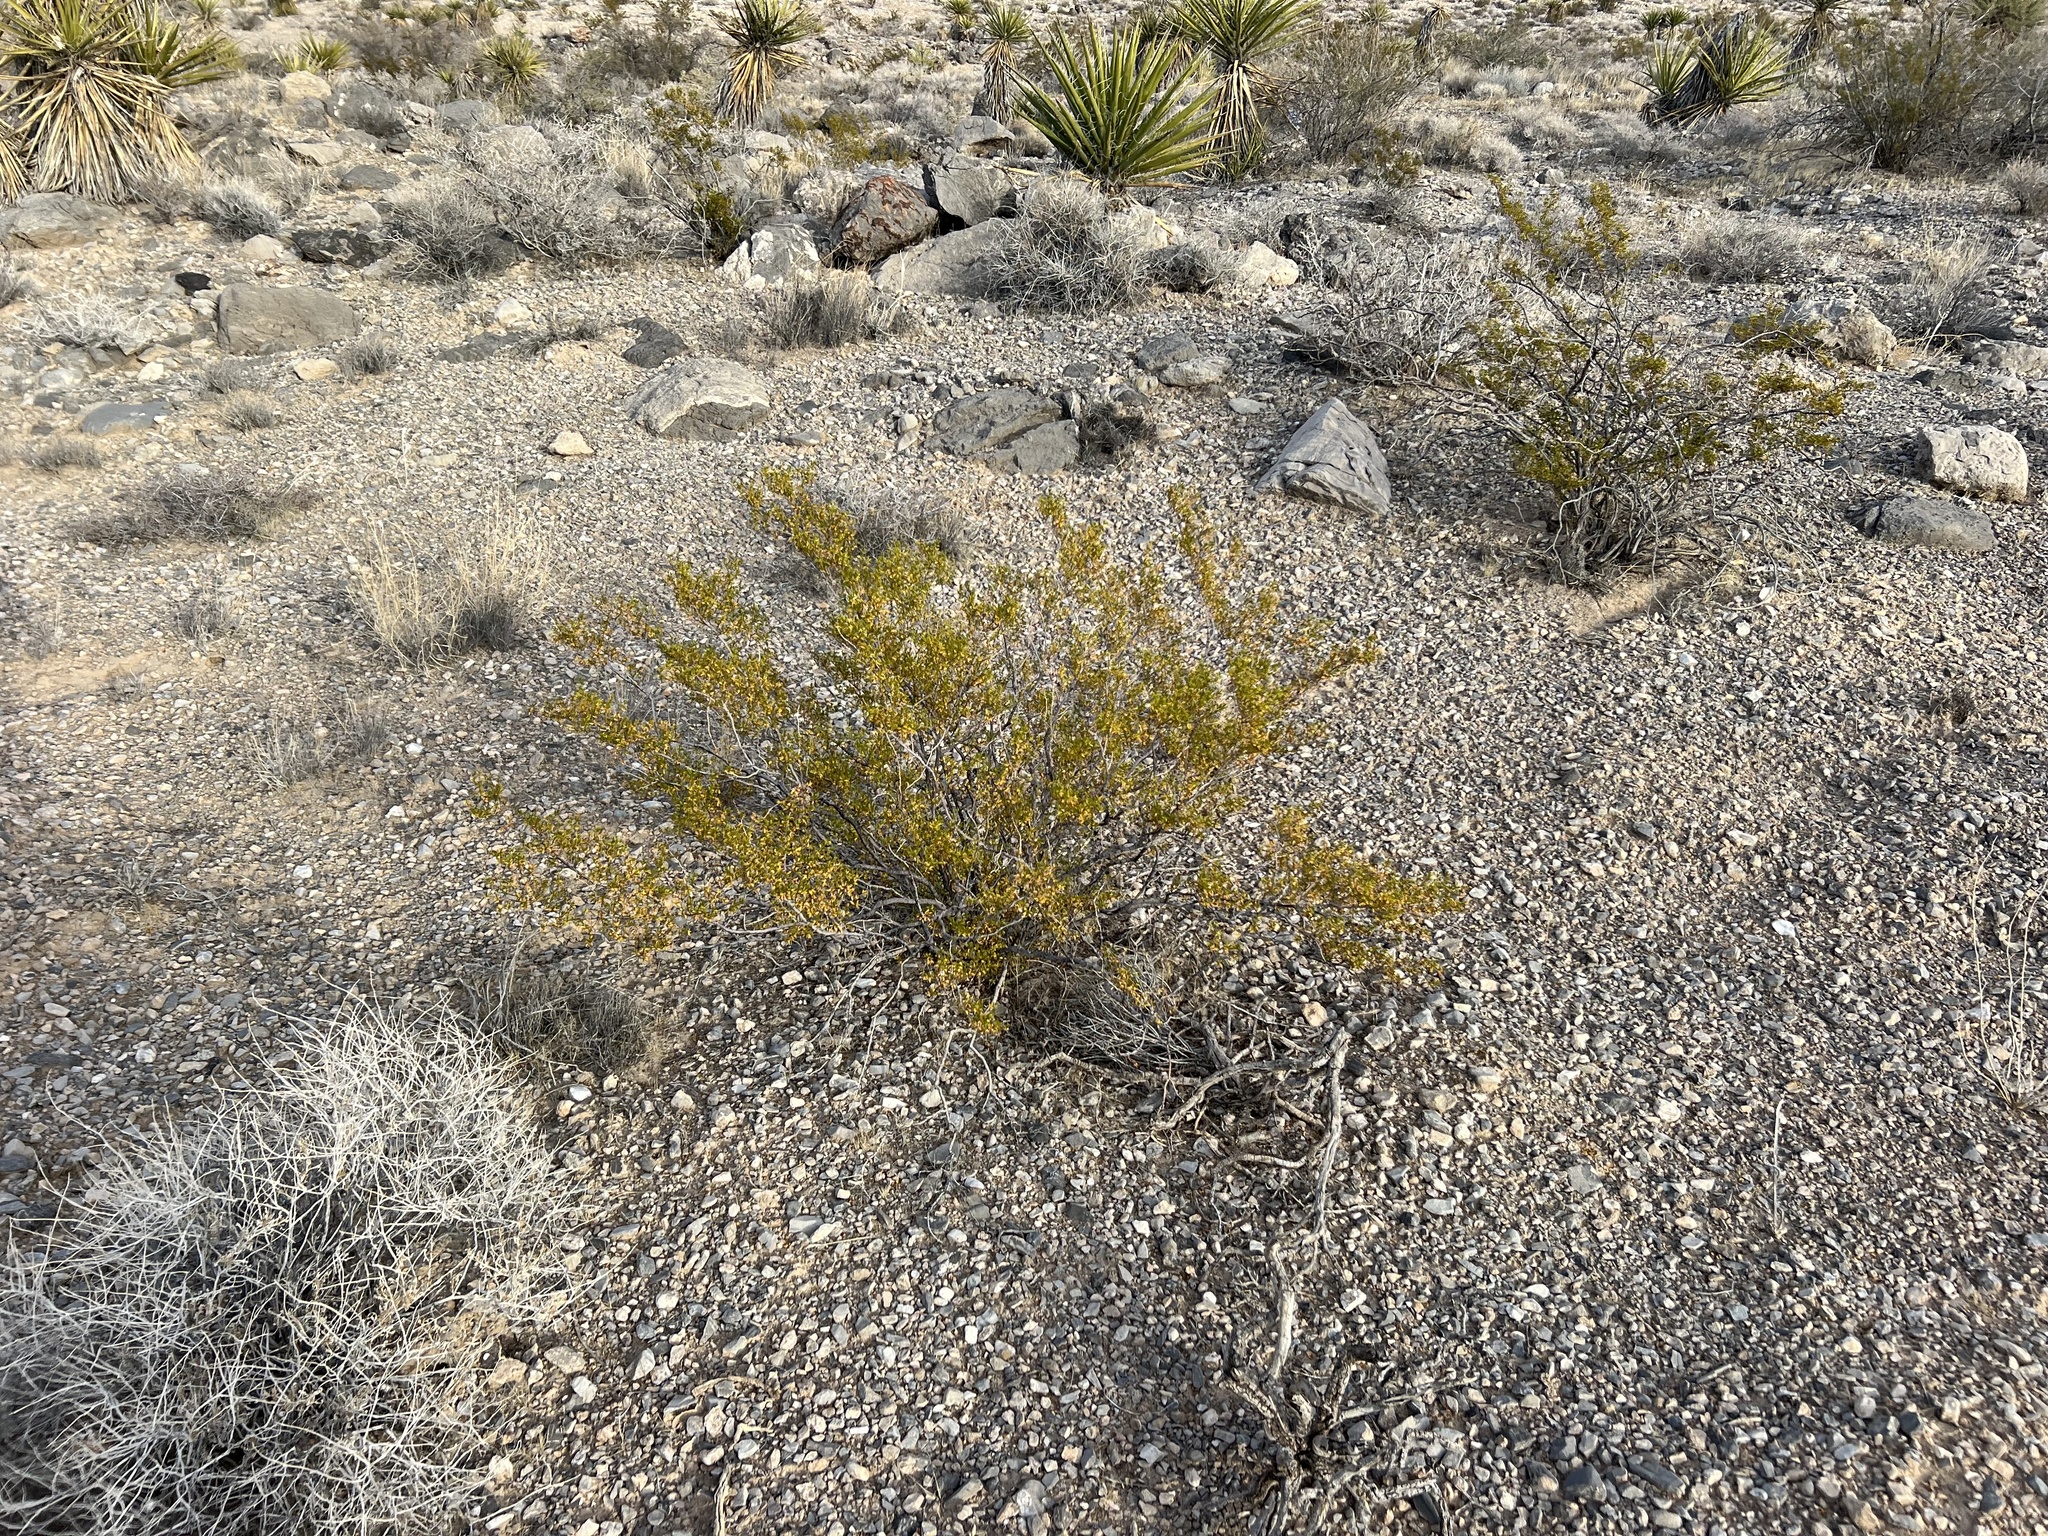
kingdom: Plantae
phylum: Tracheophyta
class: Magnoliopsida
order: Zygophyllales
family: Zygophyllaceae
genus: Larrea
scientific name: Larrea tridentata
